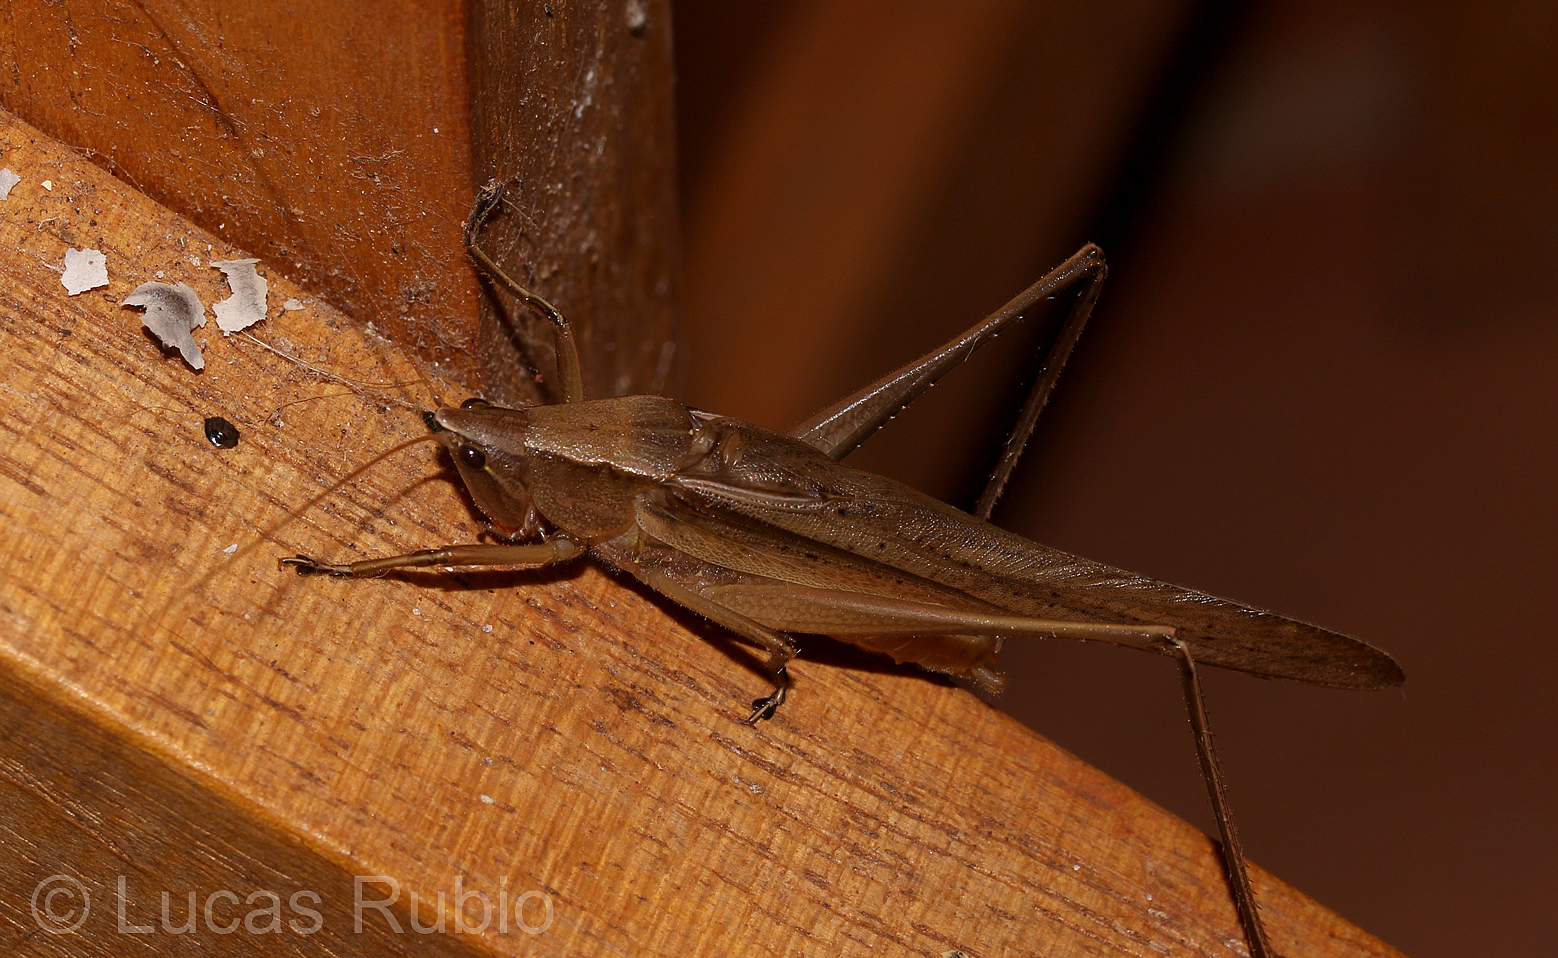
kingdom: Animalia
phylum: Arthropoda
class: Insecta
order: Orthoptera
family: Tettigoniidae
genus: Neoconocephalus
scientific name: Neoconocephalus pullus
